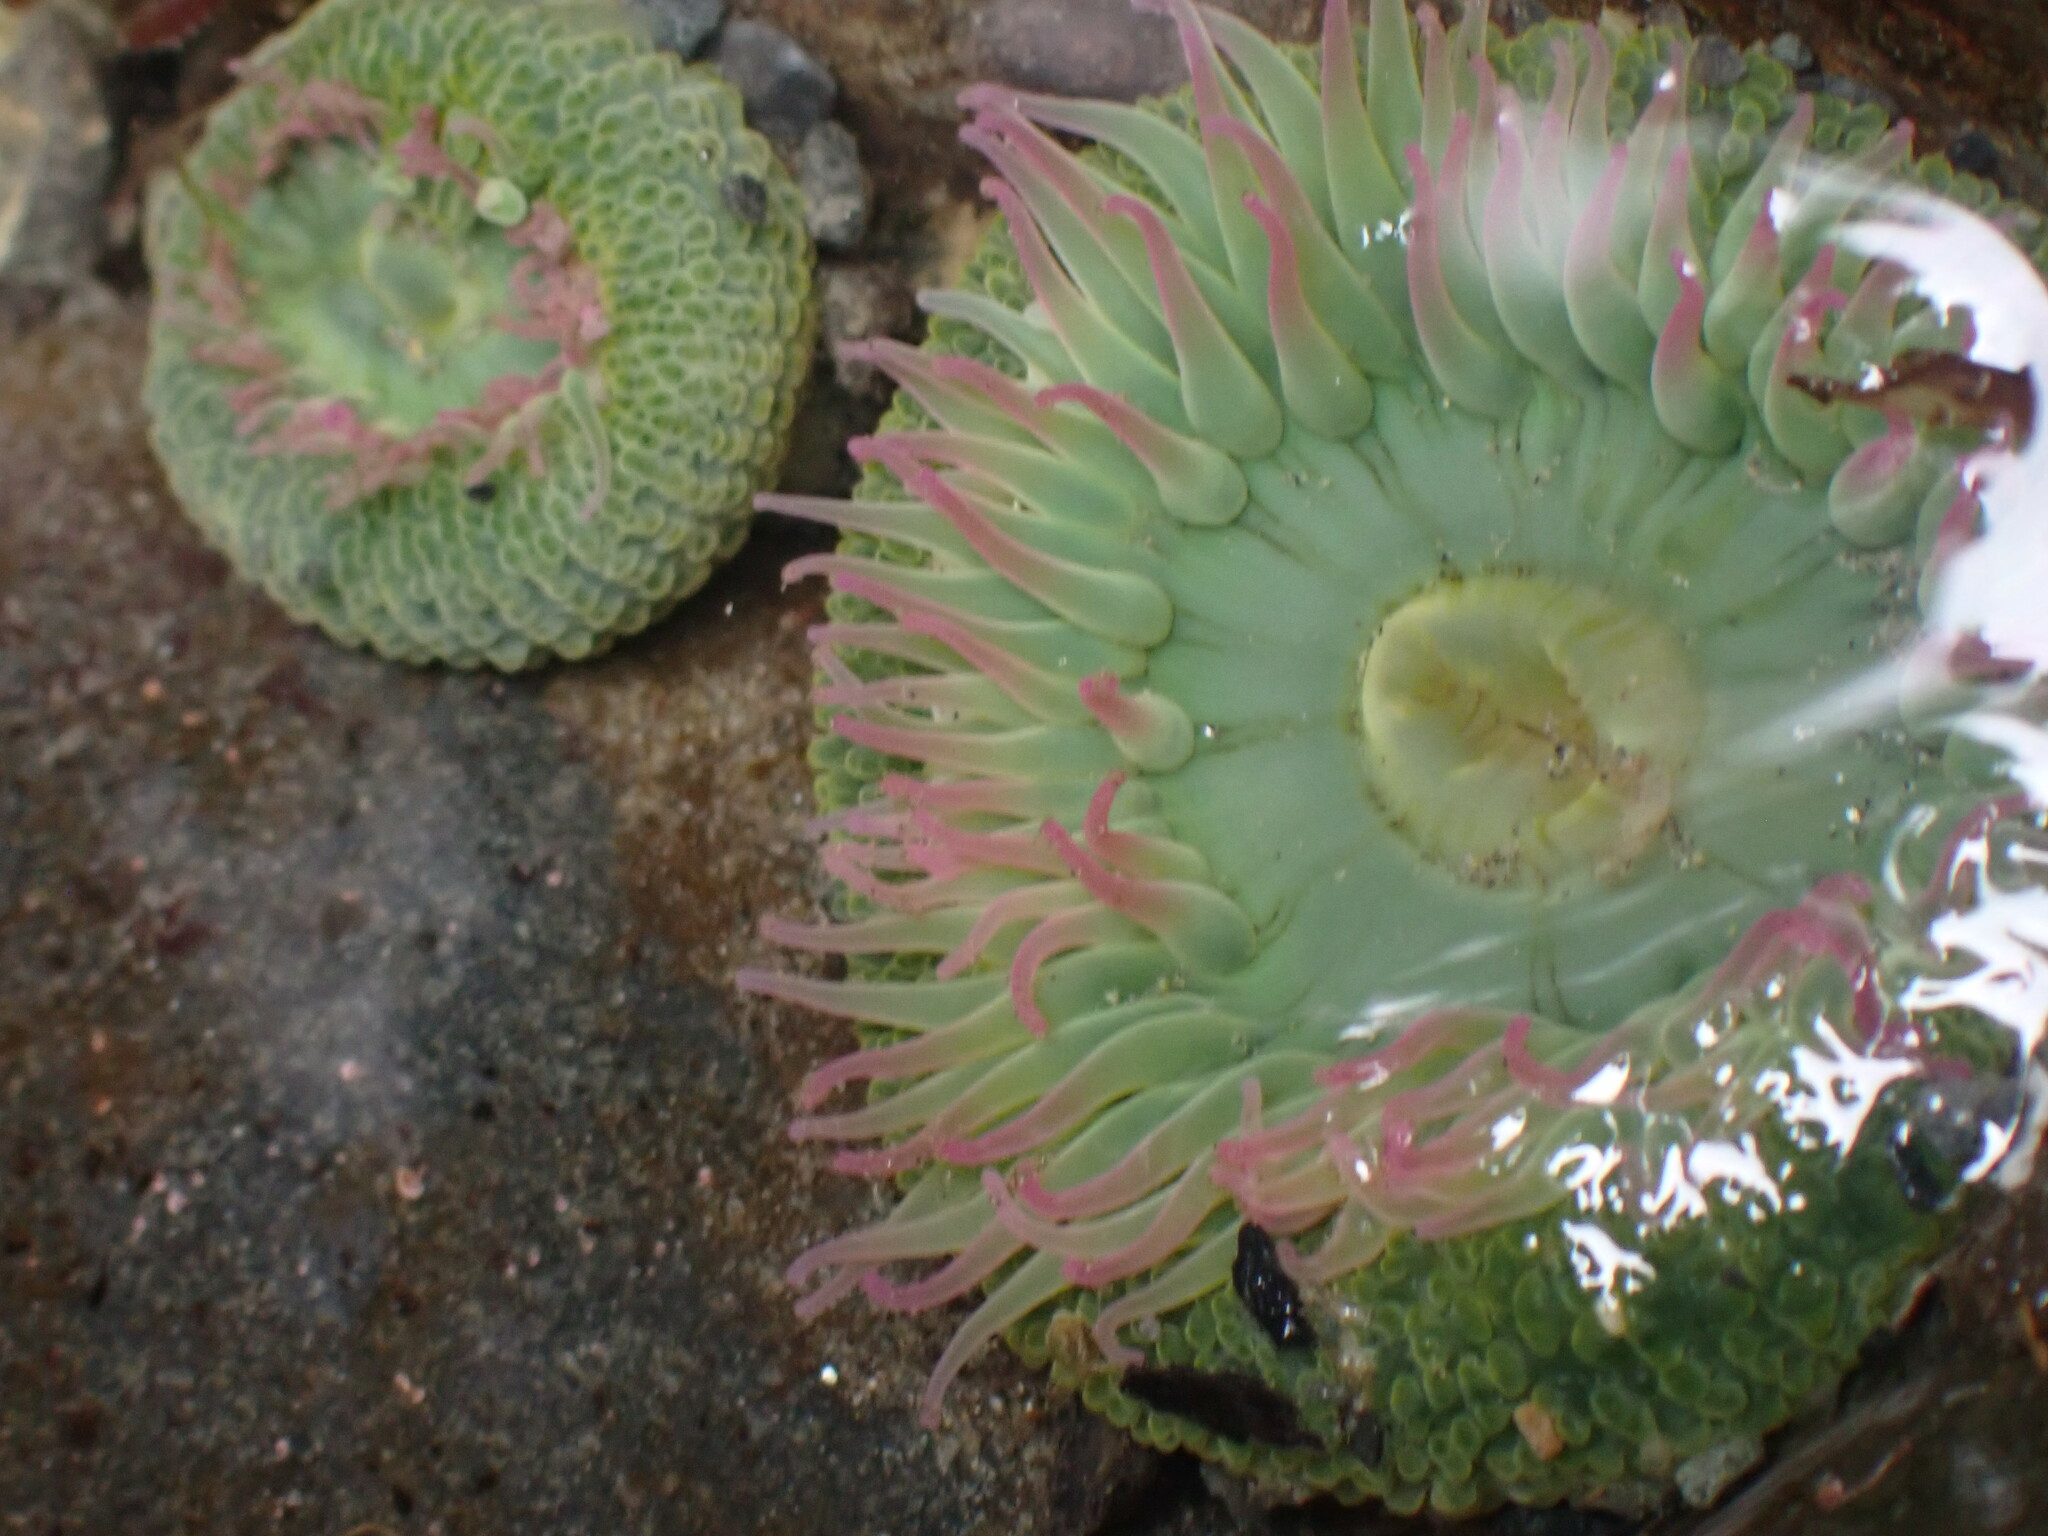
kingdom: Animalia
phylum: Cnidaria
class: Anthozoa
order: Actiniaria
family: Actiniidae
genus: Anthopleura
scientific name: Anthopleura elegantissima
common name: Clonal anemone
